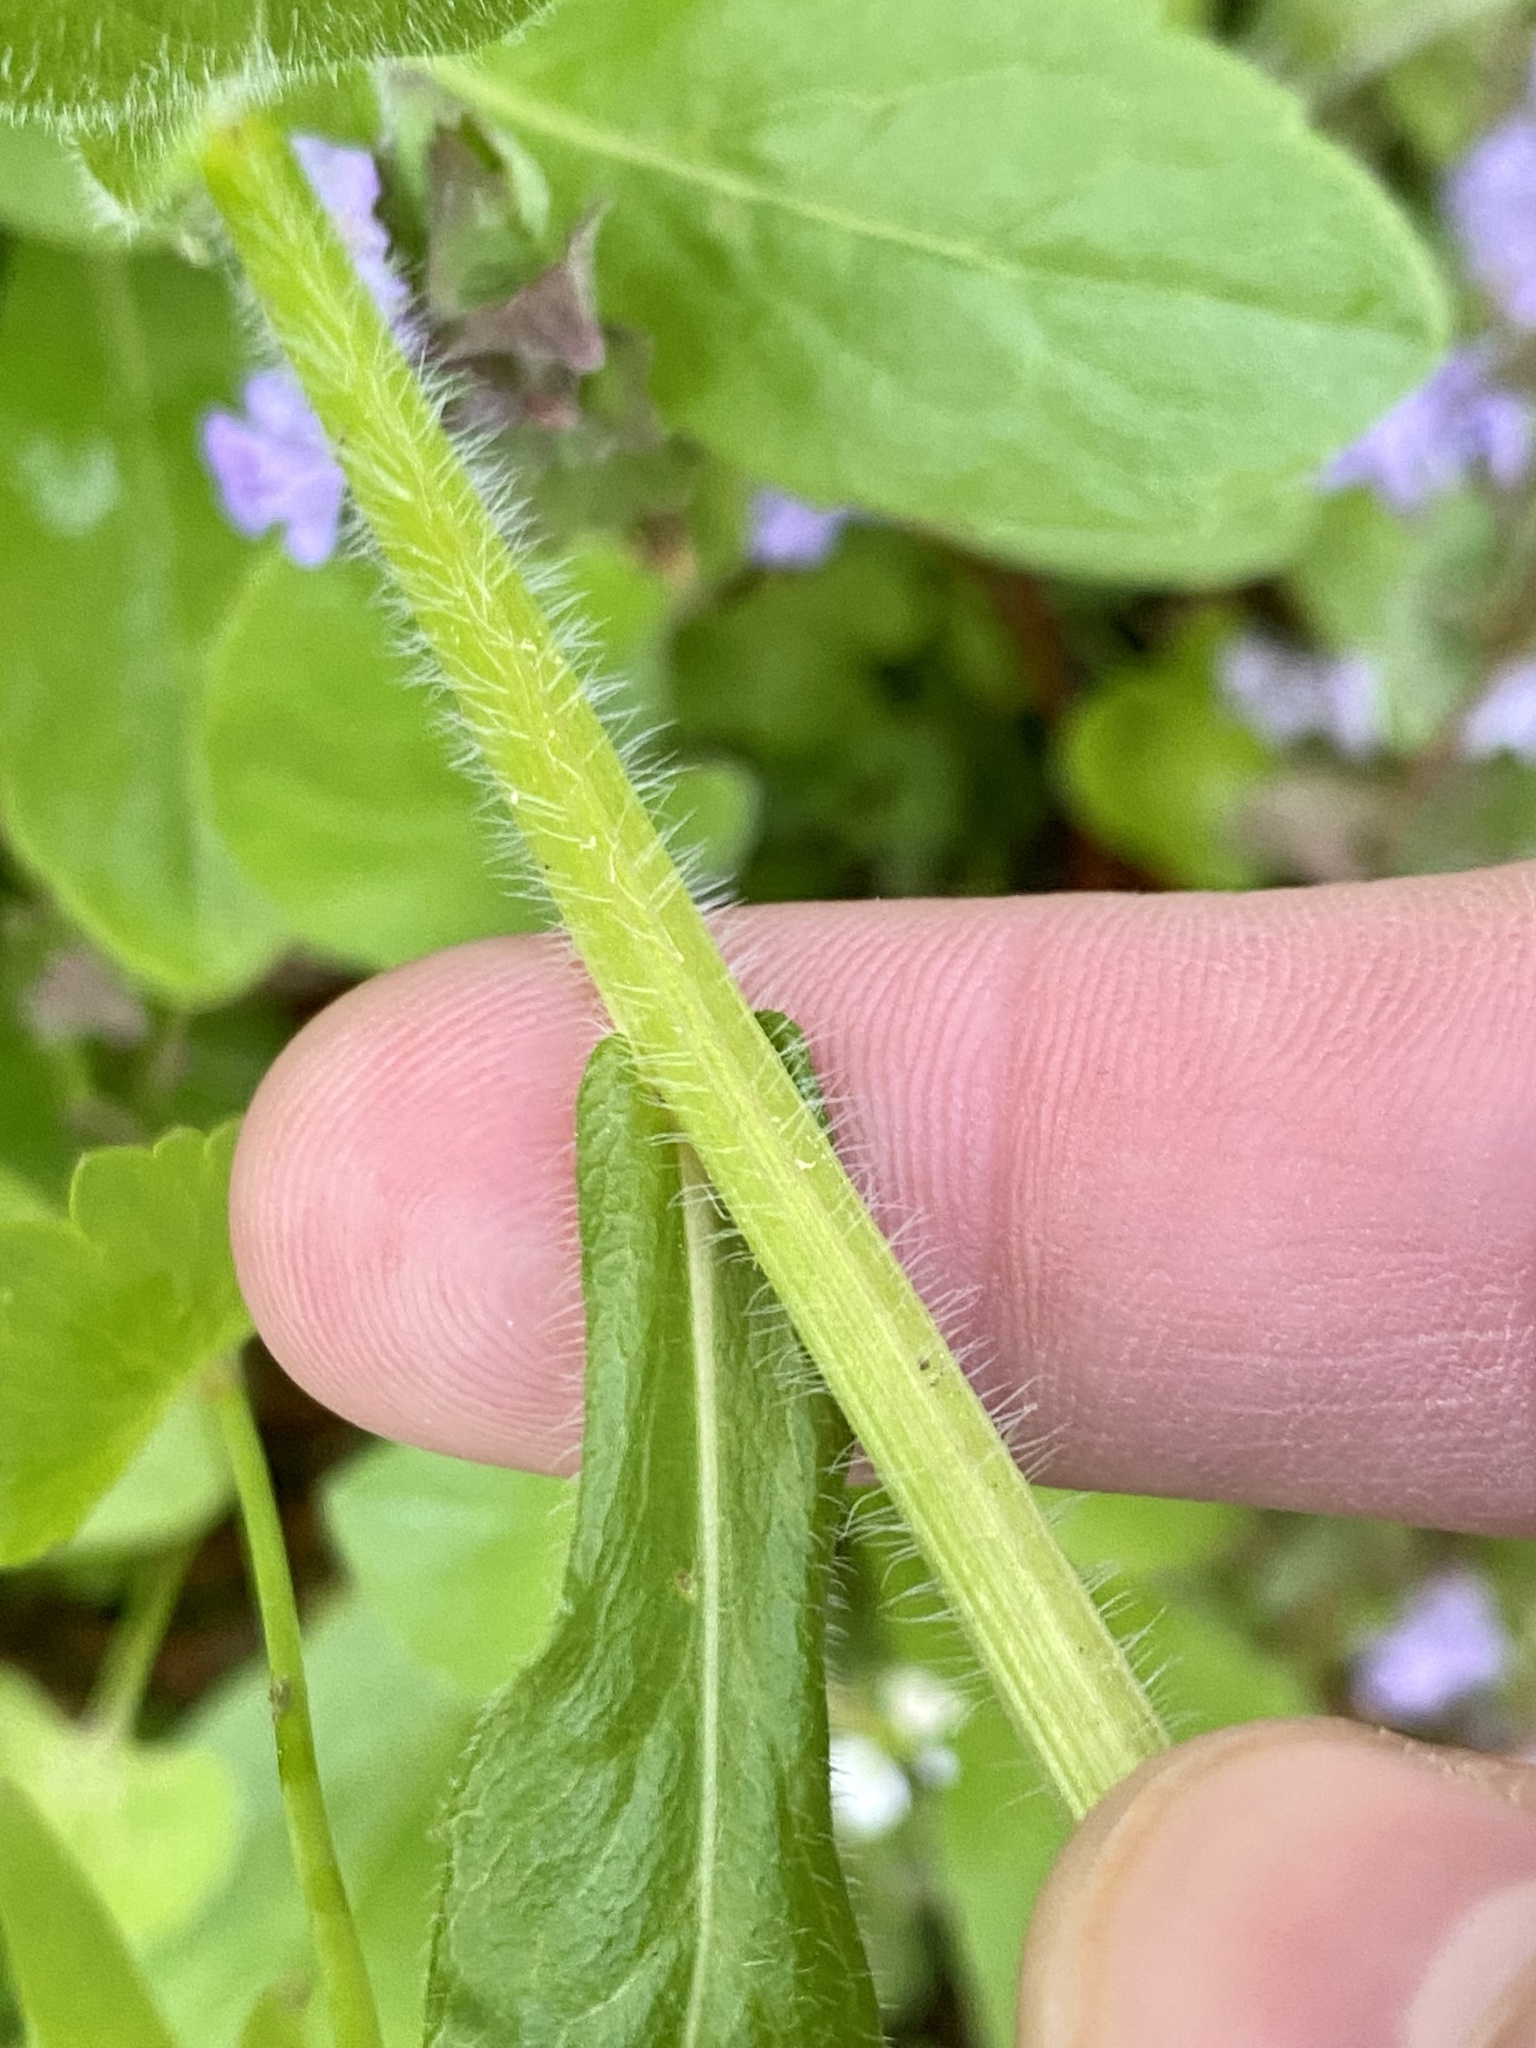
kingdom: Plantae
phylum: Tracheophyta
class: Magnoliopsida
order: Asterales
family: Asteraceae
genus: Erigeron
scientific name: Erigeron philadelphicus
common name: Robin's-plantain
